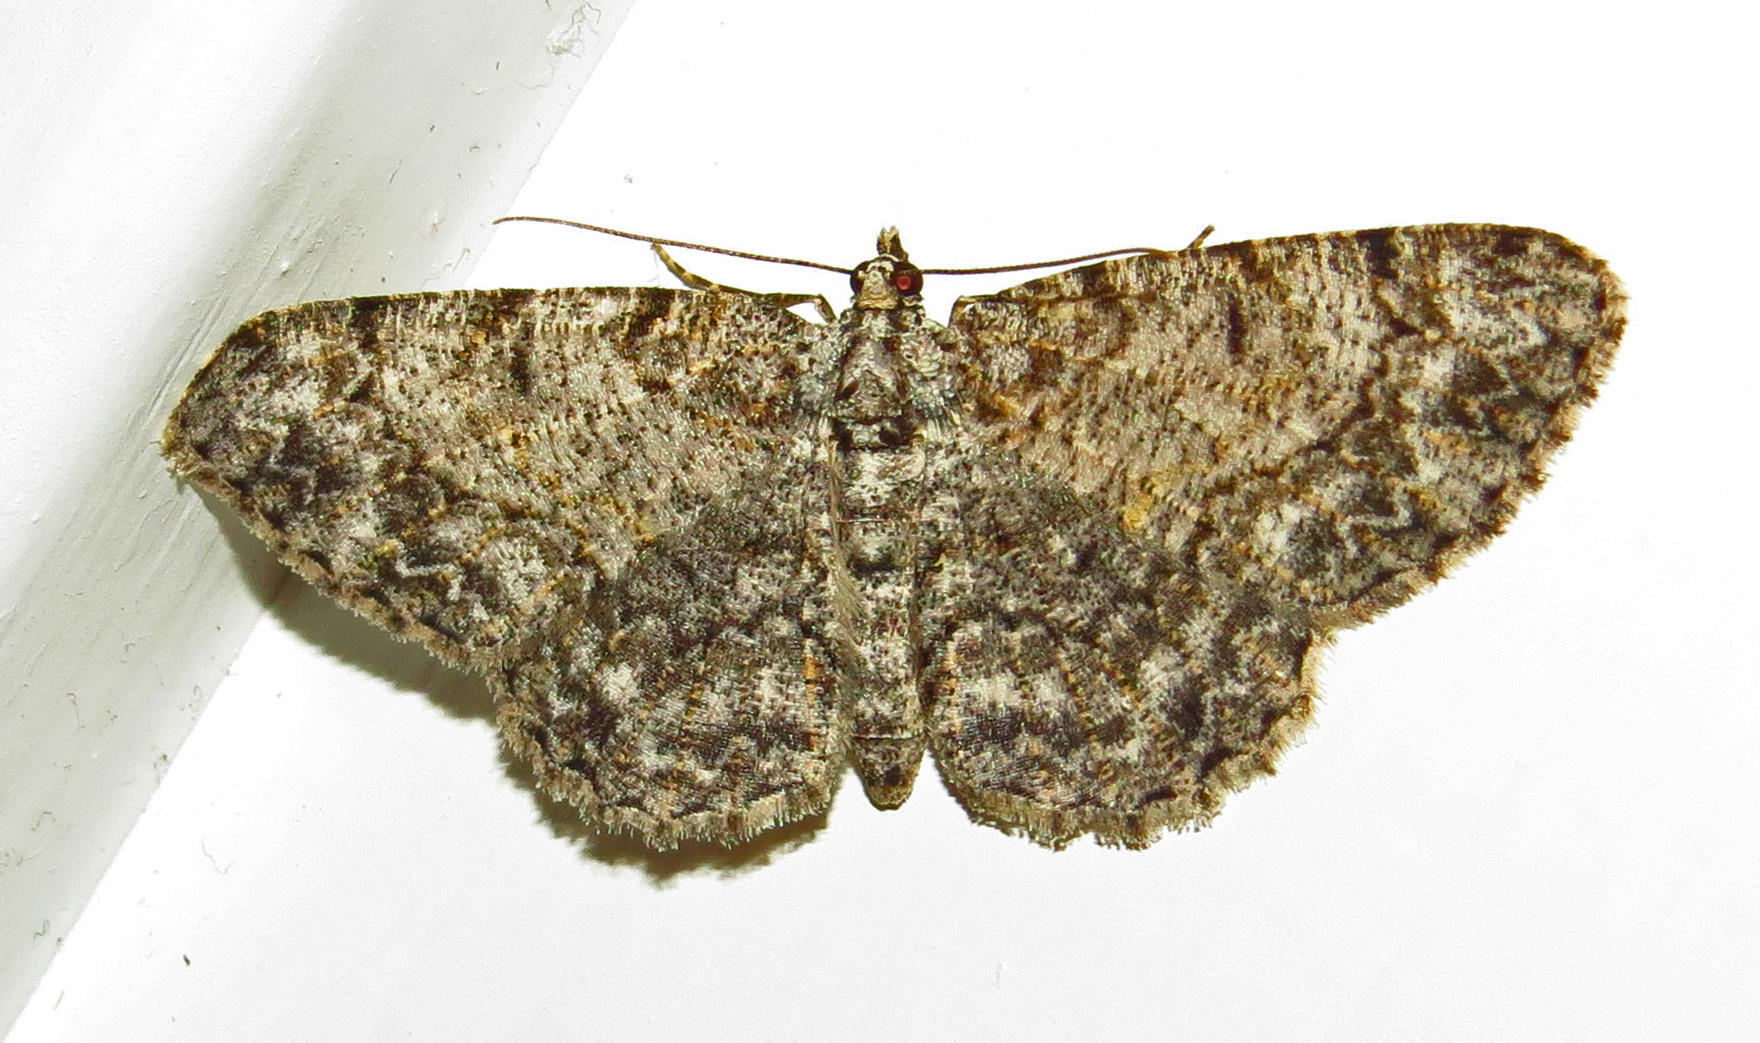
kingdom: Animalia
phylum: Arthropoda
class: Insecta
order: Lepidoptera
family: Geometridae
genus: Protoboarmia
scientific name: Protoboarmia porcelaria
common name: Porcelain gray
